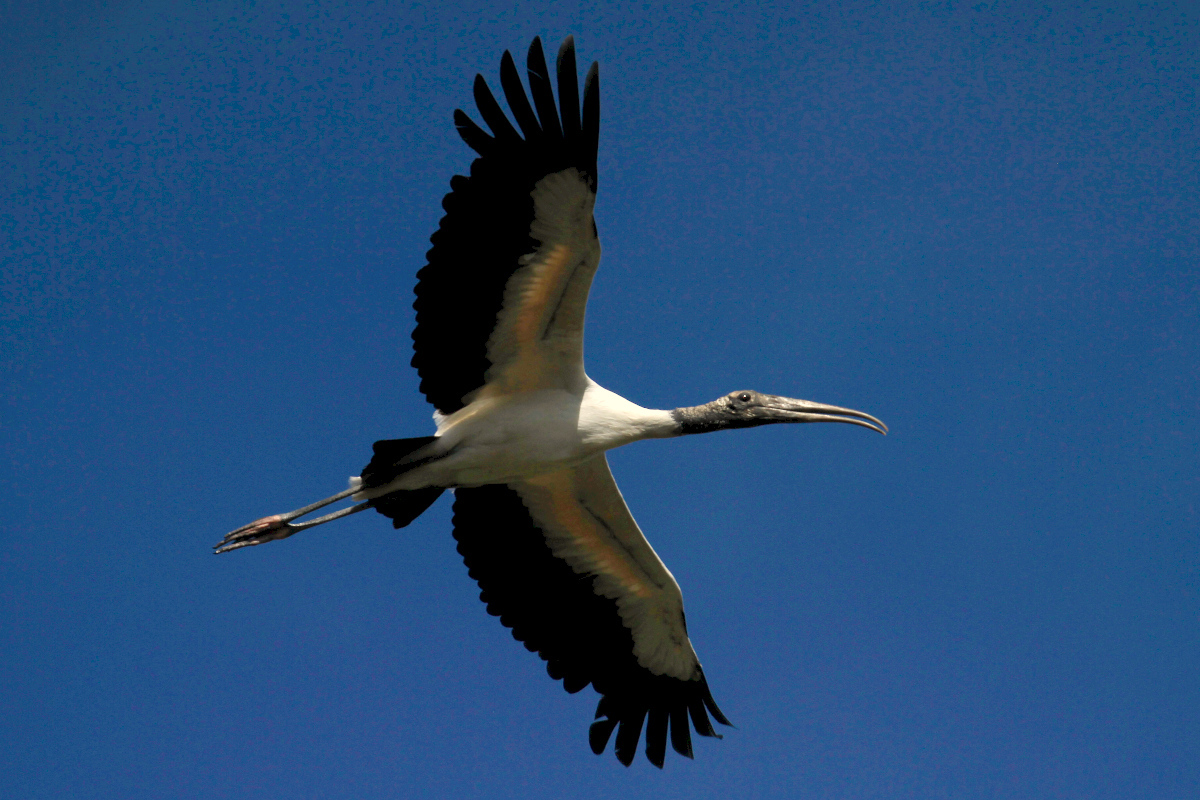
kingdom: Animalia
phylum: Chordata
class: Aves
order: Ciconiiformes
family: Ciconiidae
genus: Mycteria
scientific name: Mycteria americana
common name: Wood stork
